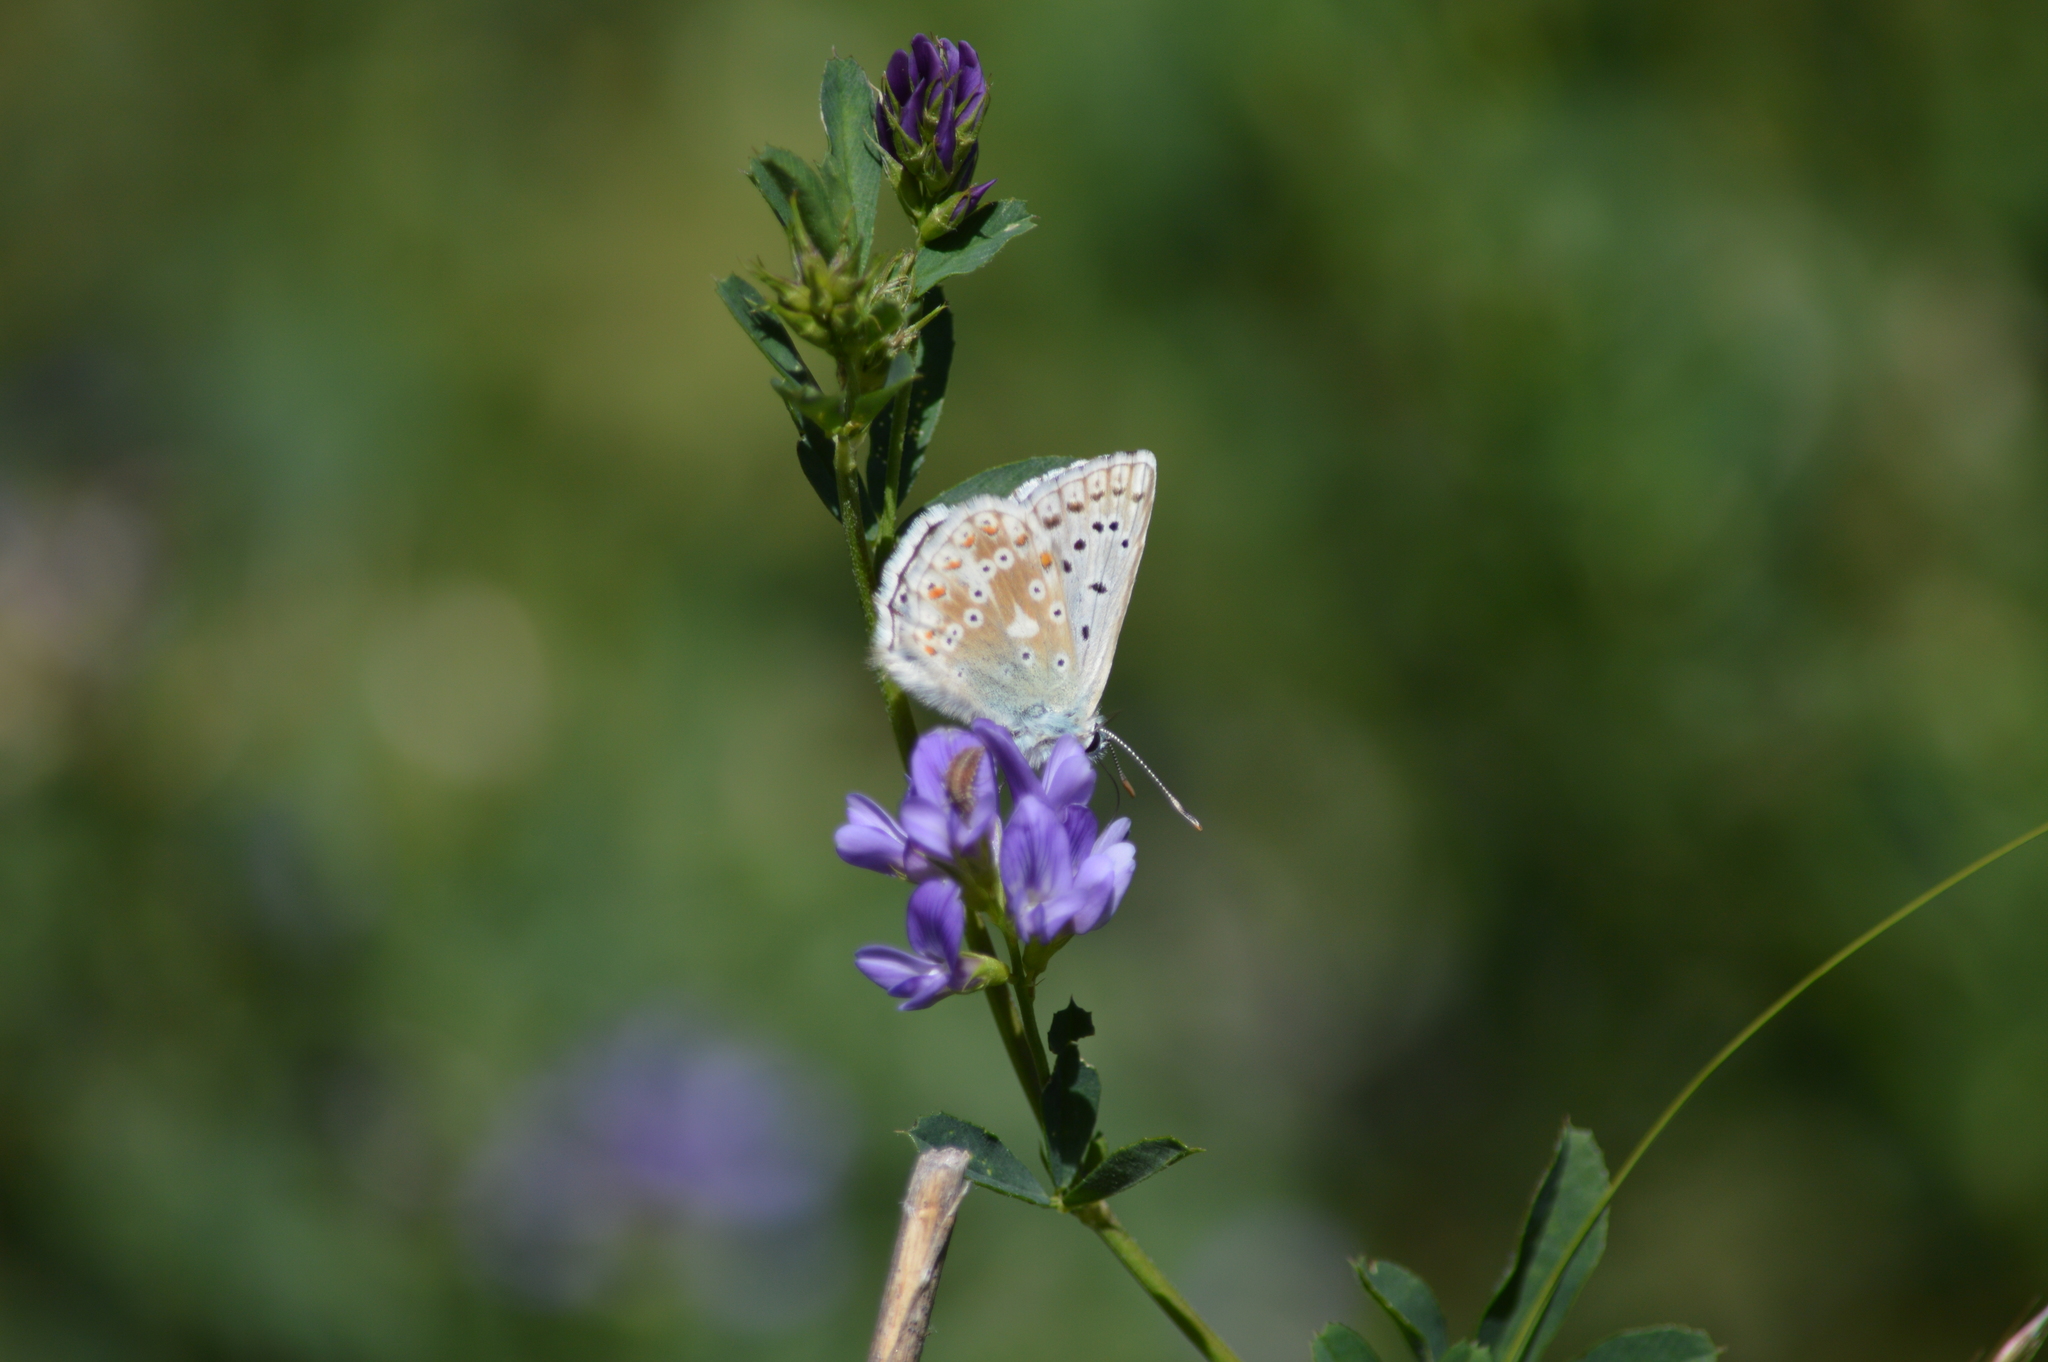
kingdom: Animalia
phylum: Arthropoda
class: Insecta
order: Lepidoptera
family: Lycaenidae
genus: Lysandra
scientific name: Lysandra coridon
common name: Chalkhill blue
